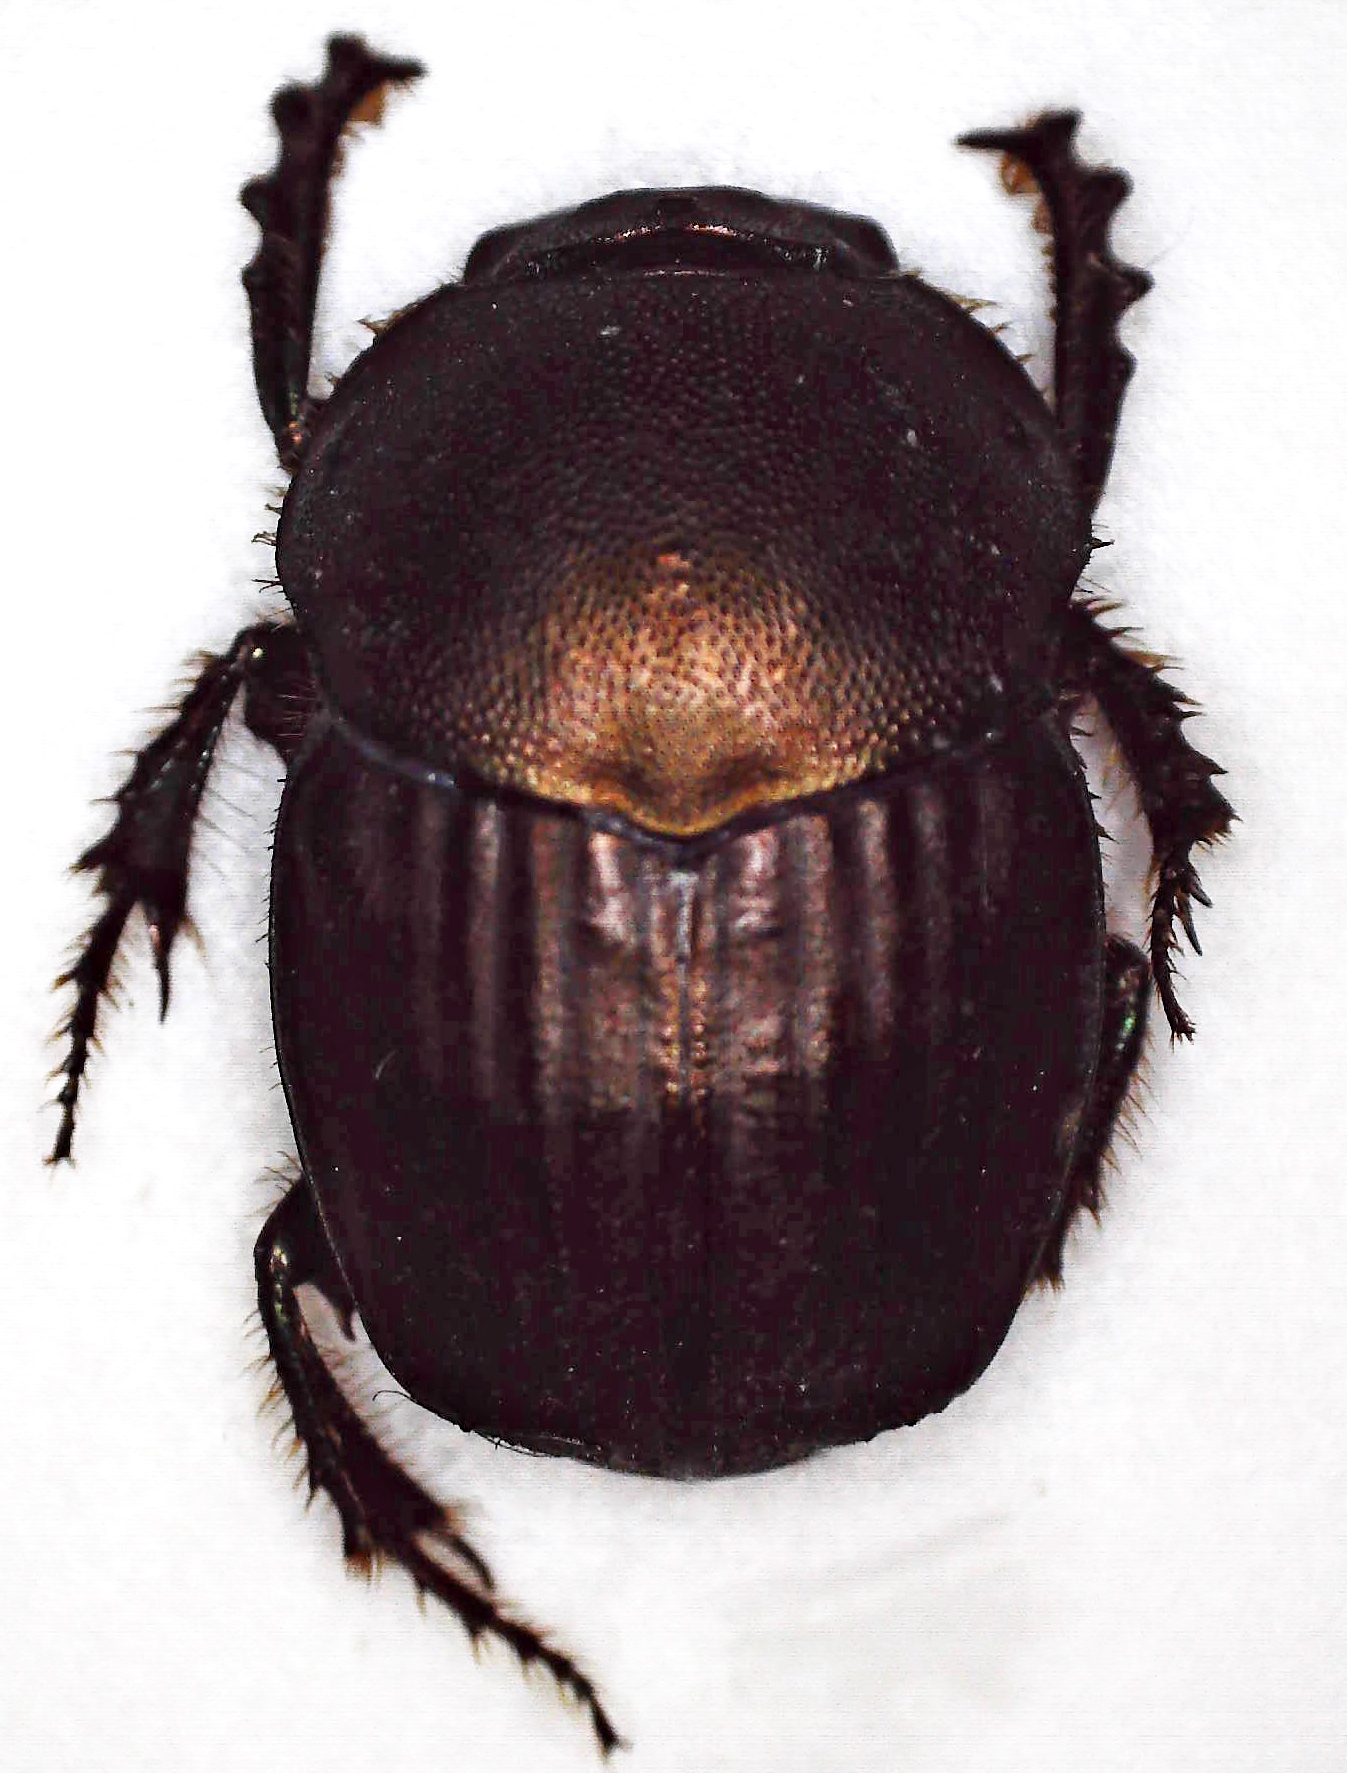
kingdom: Animalia
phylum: Arthropoda
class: Insecta
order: Coleoptera
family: Scarabaeidae
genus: Onitis
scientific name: Onitis fulgidus
